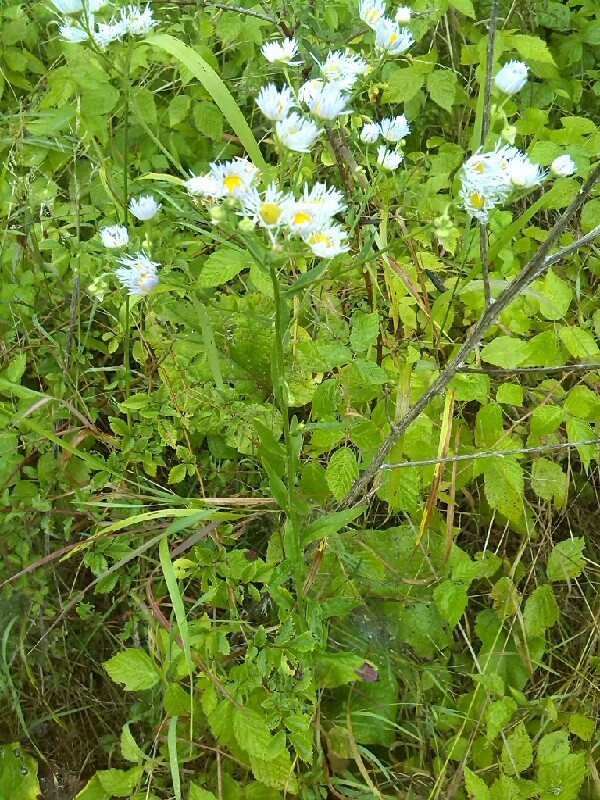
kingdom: Plantae
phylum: Tracheophyta
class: Magnoliopsida
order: Asterales
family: Asteraceae
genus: Erigeron
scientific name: Erigeron annuus
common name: Tall fleabane
